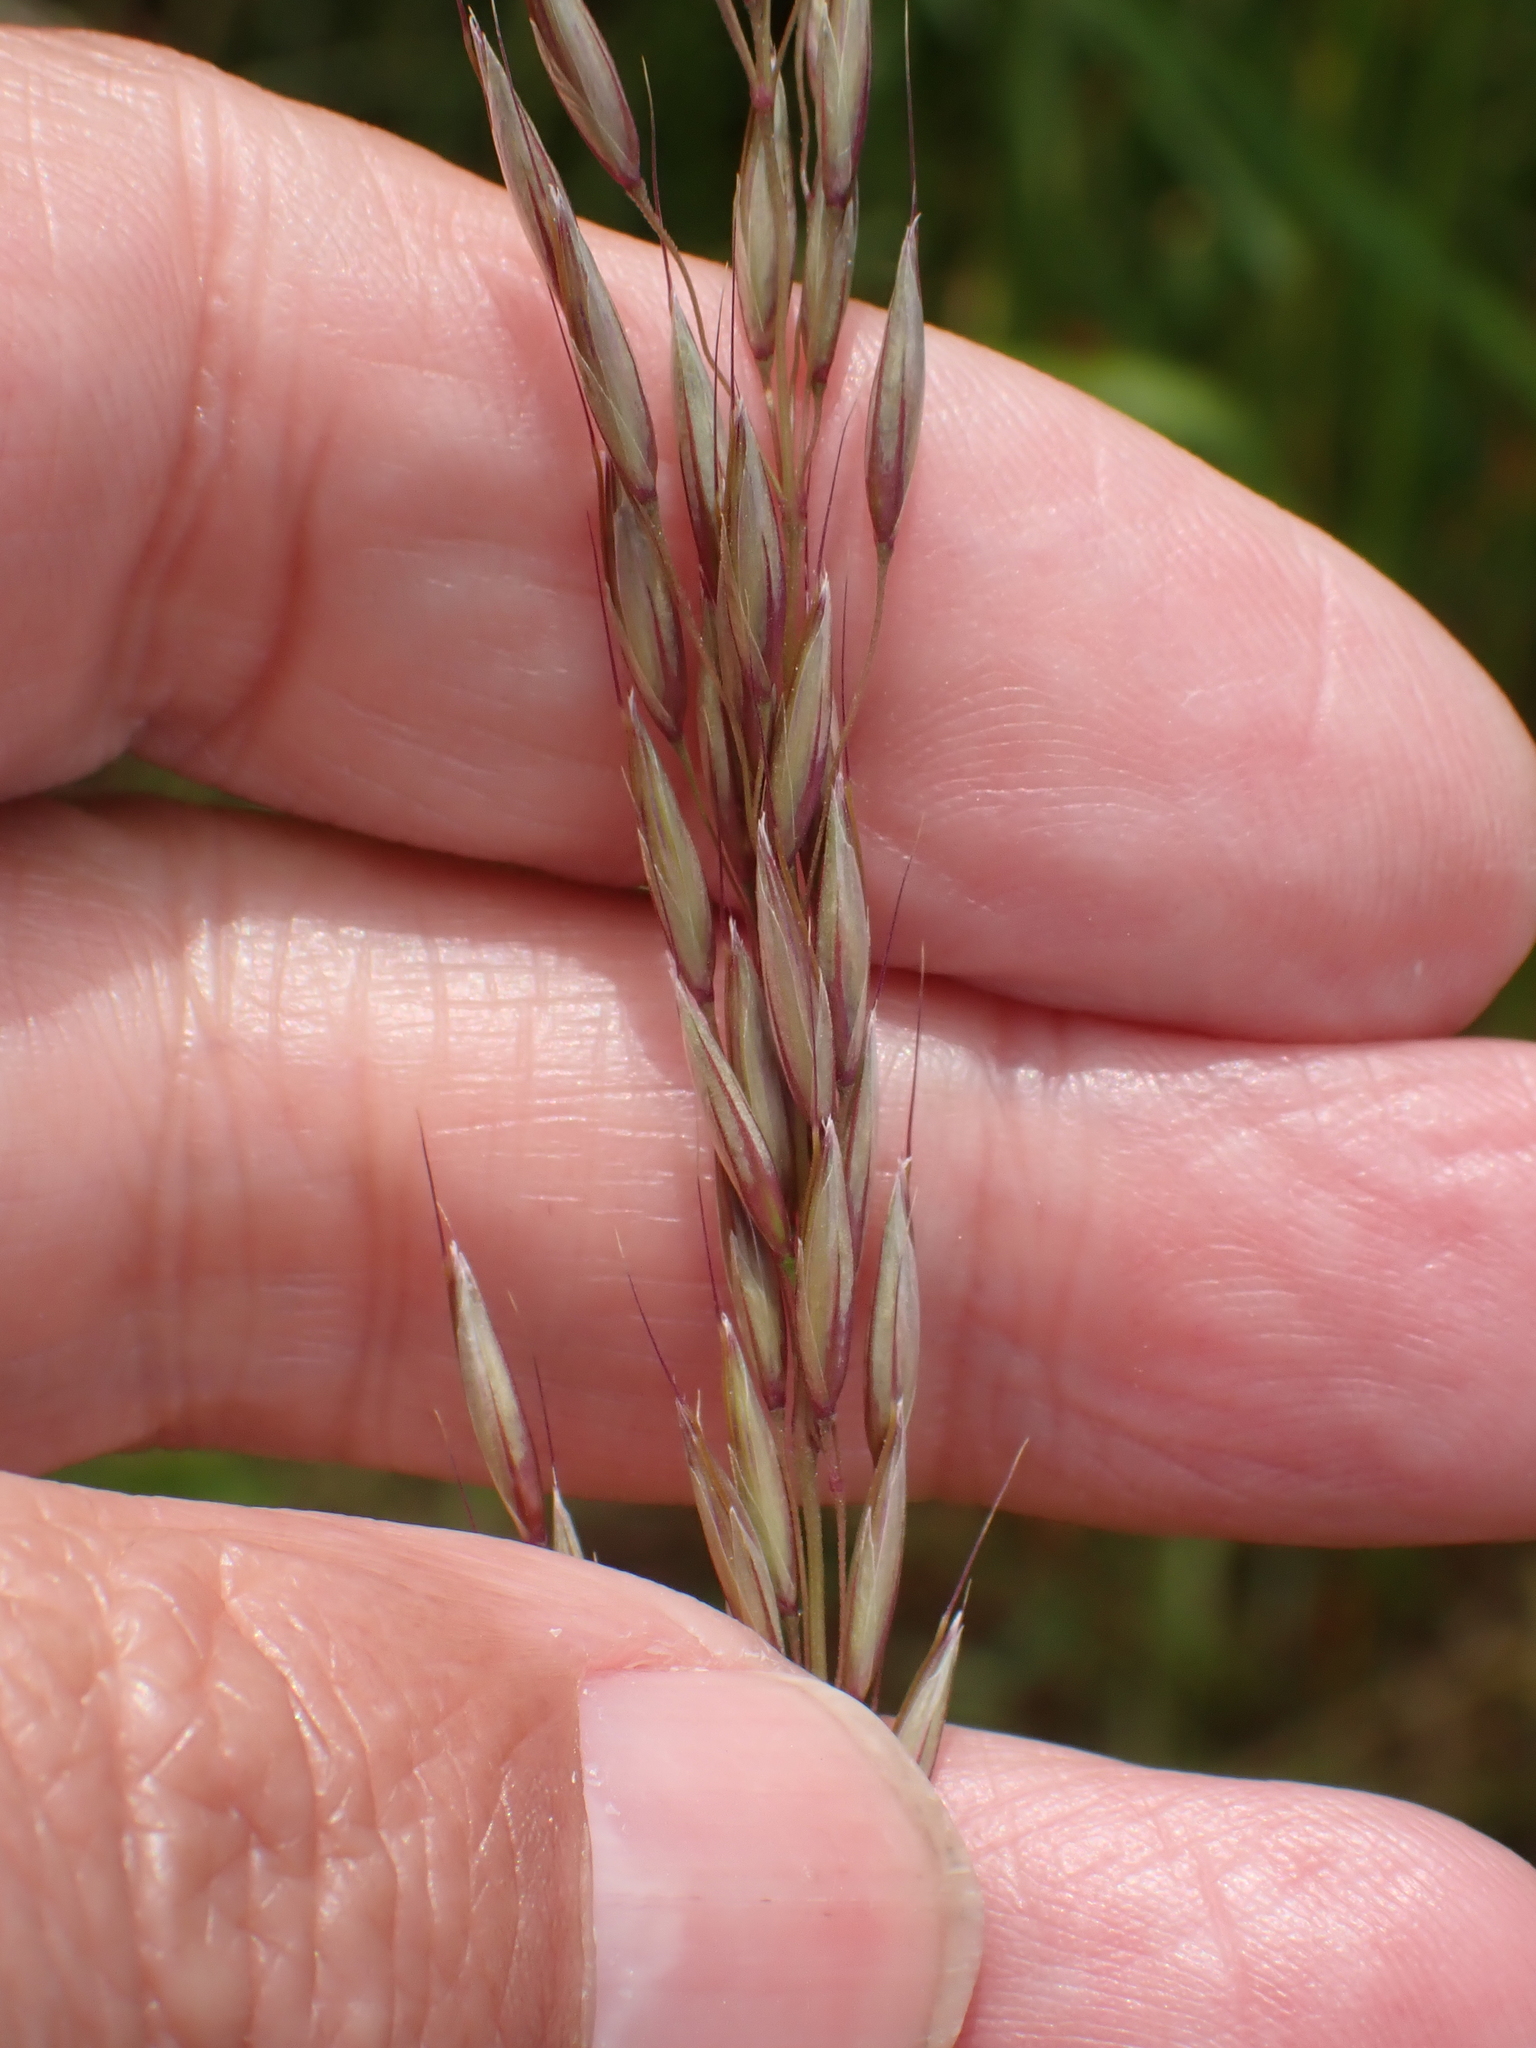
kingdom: Plantae
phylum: Tracheophyta
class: Liliopsida
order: Poales
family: Poaceae
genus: Arrhenatherum
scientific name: Arrhenatherum elatius
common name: Tall oatgrass
